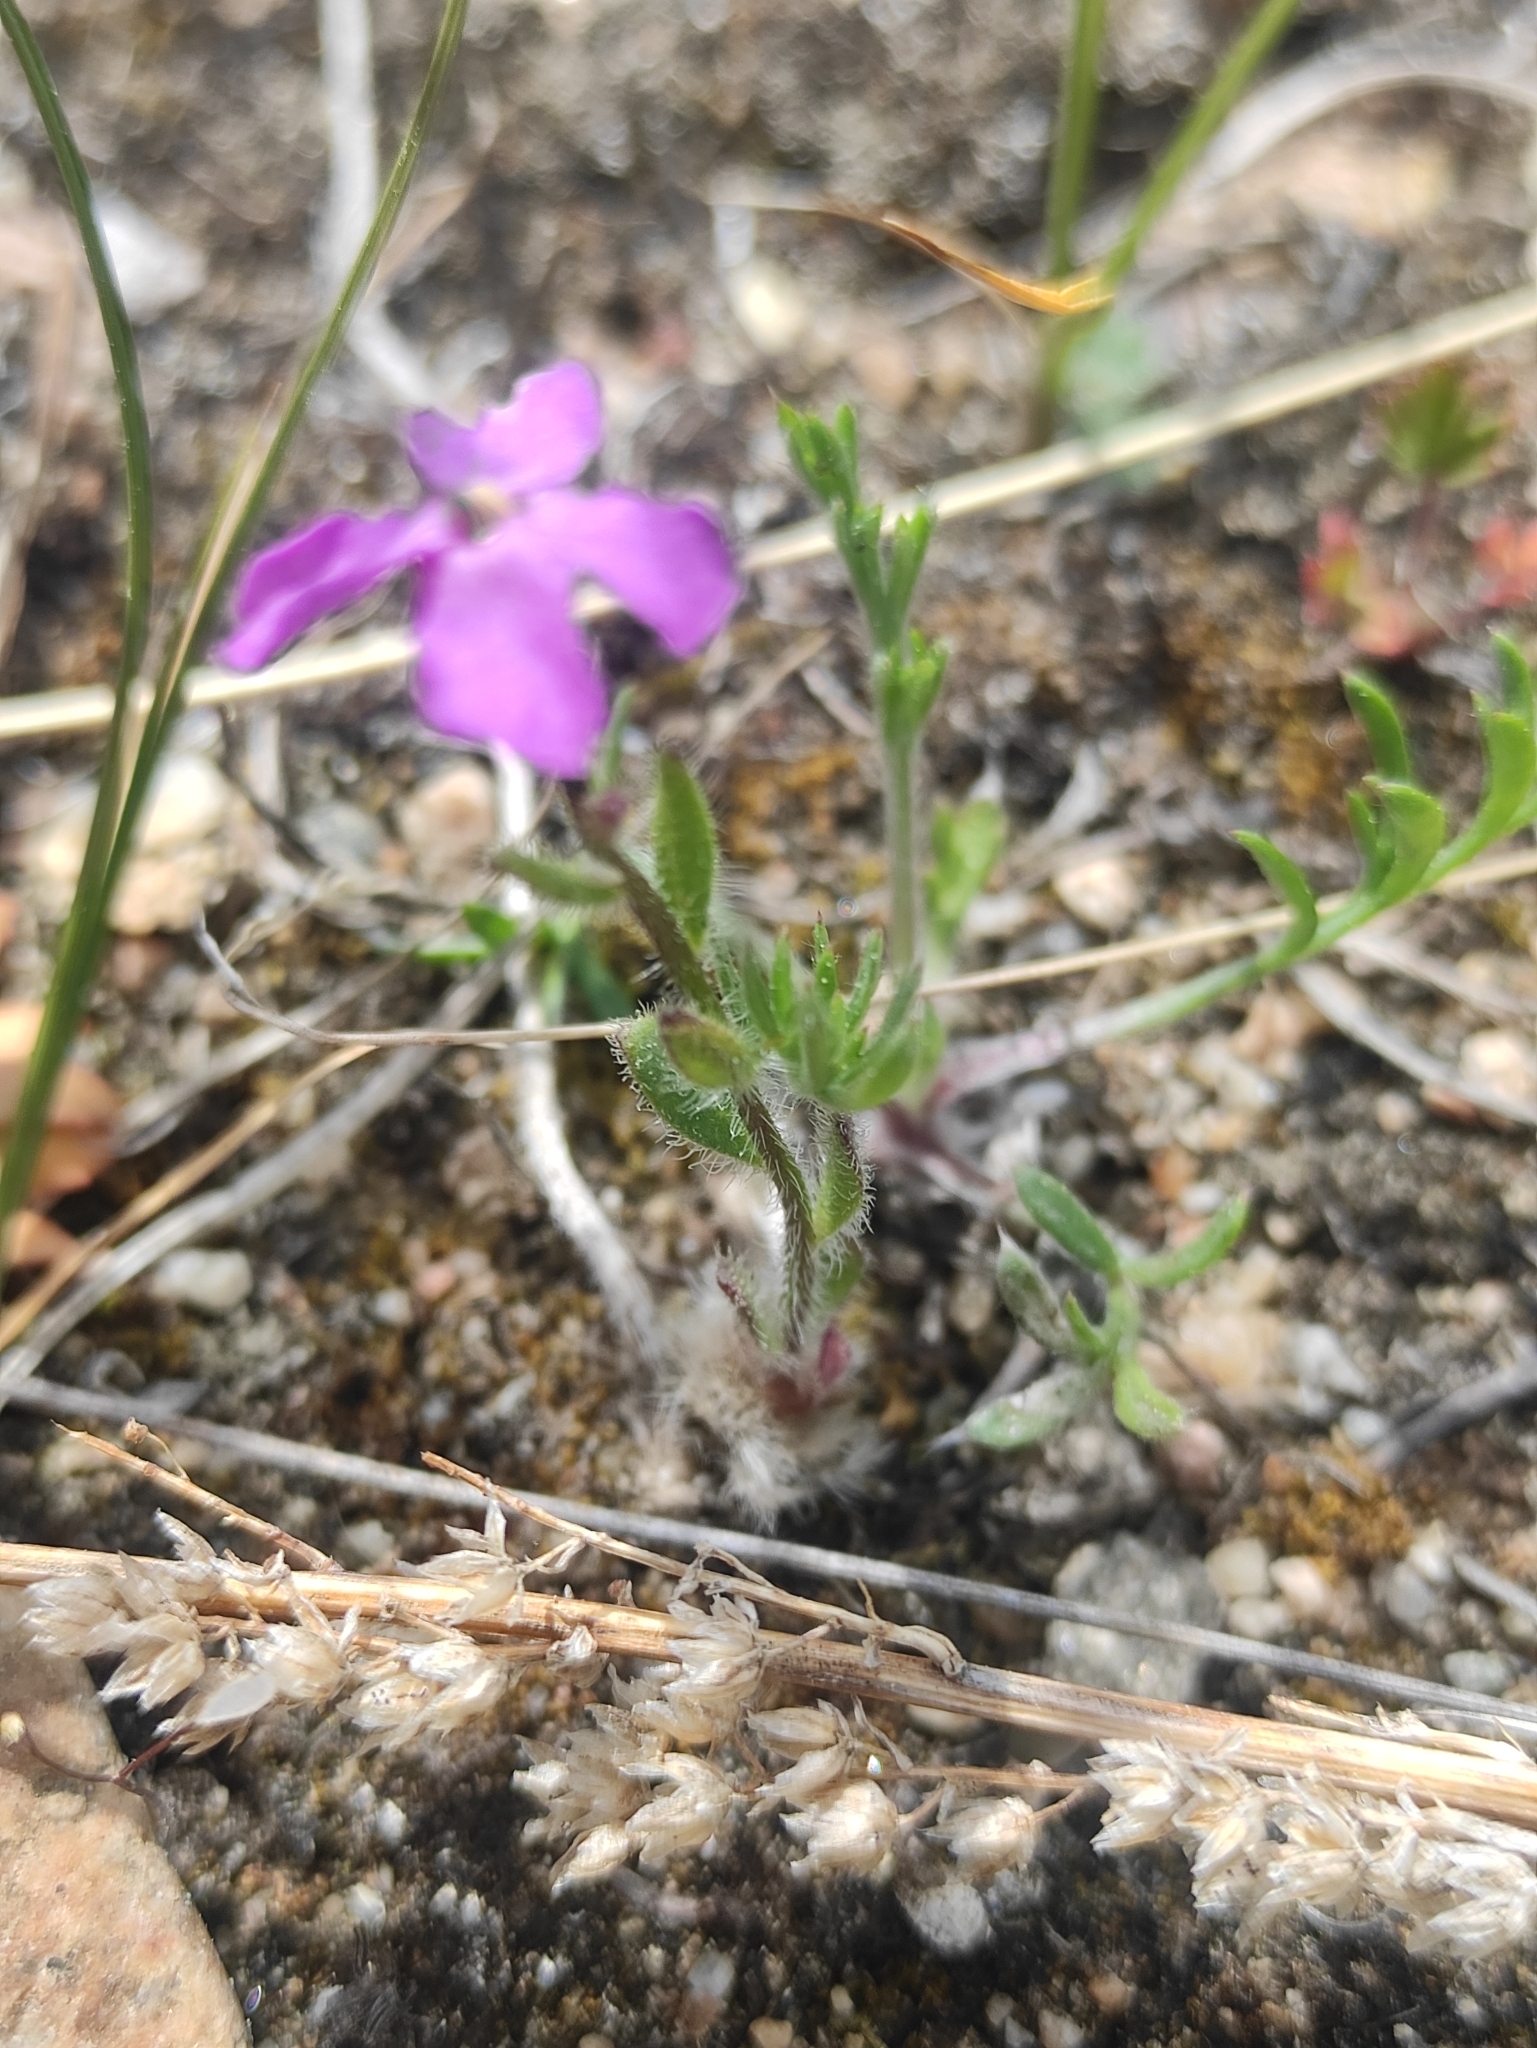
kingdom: Plantae
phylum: Tracheophyta
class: Magnoliopsida
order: Brassicales
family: Brassicaceae
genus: Clausia
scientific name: Clausia aprica
